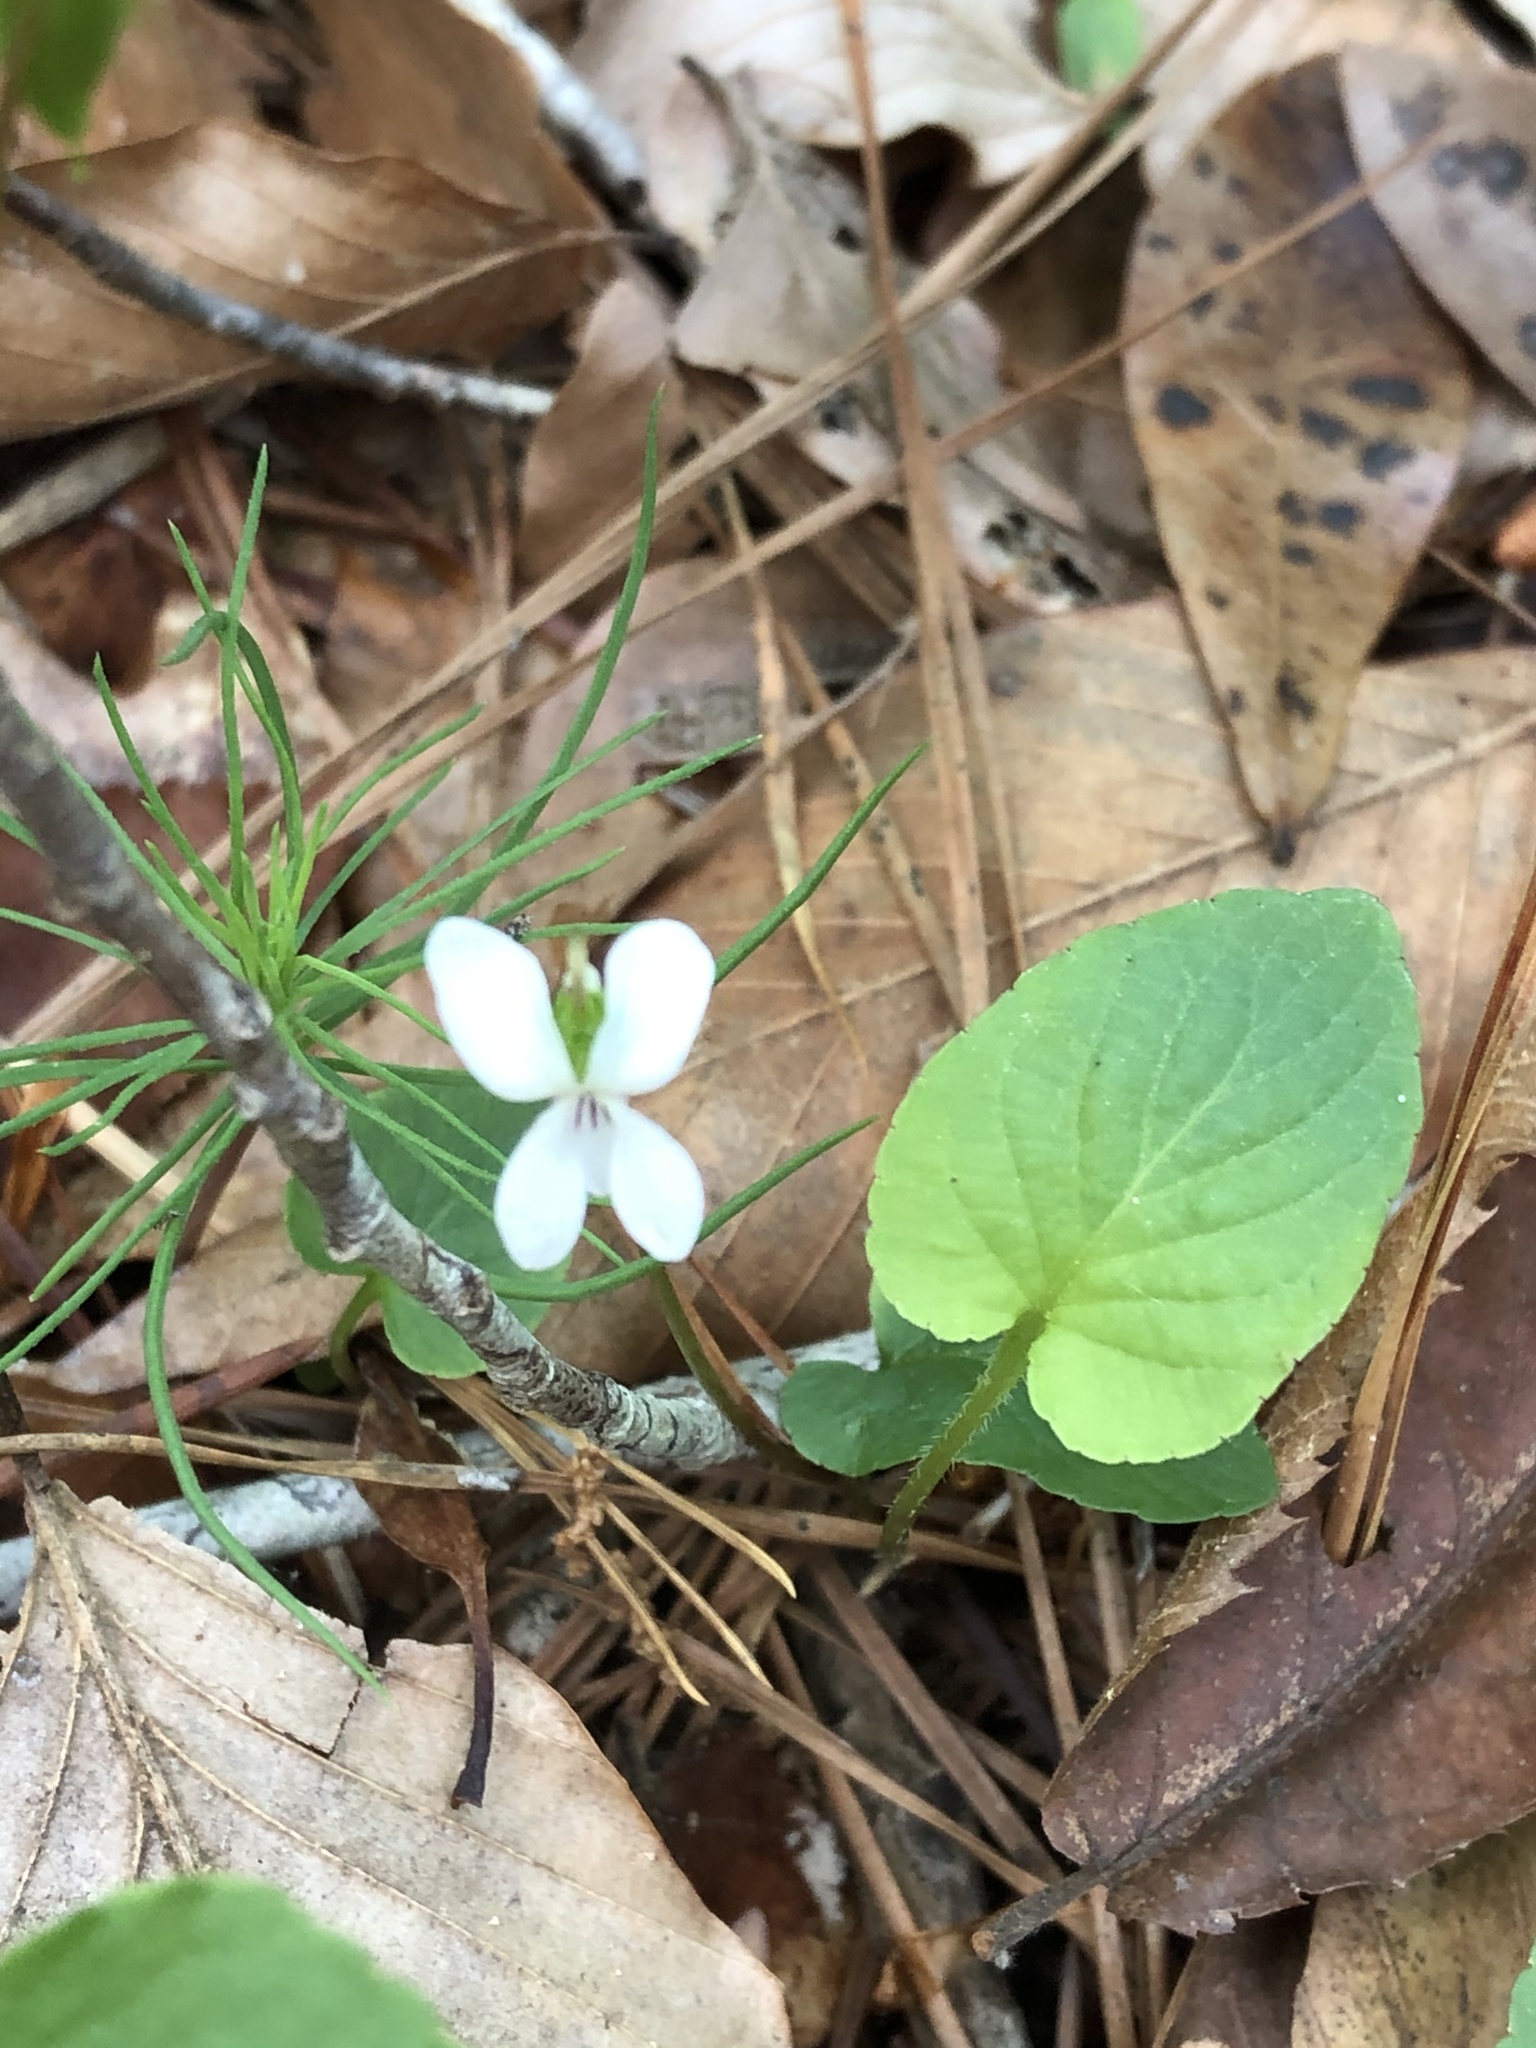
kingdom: Plantae
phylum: Tracheophyta
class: Magnoliopsida
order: Malpighiales
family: Violaceae
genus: Viola
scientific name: Viola primulifolia
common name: Primrose-leaf violet
